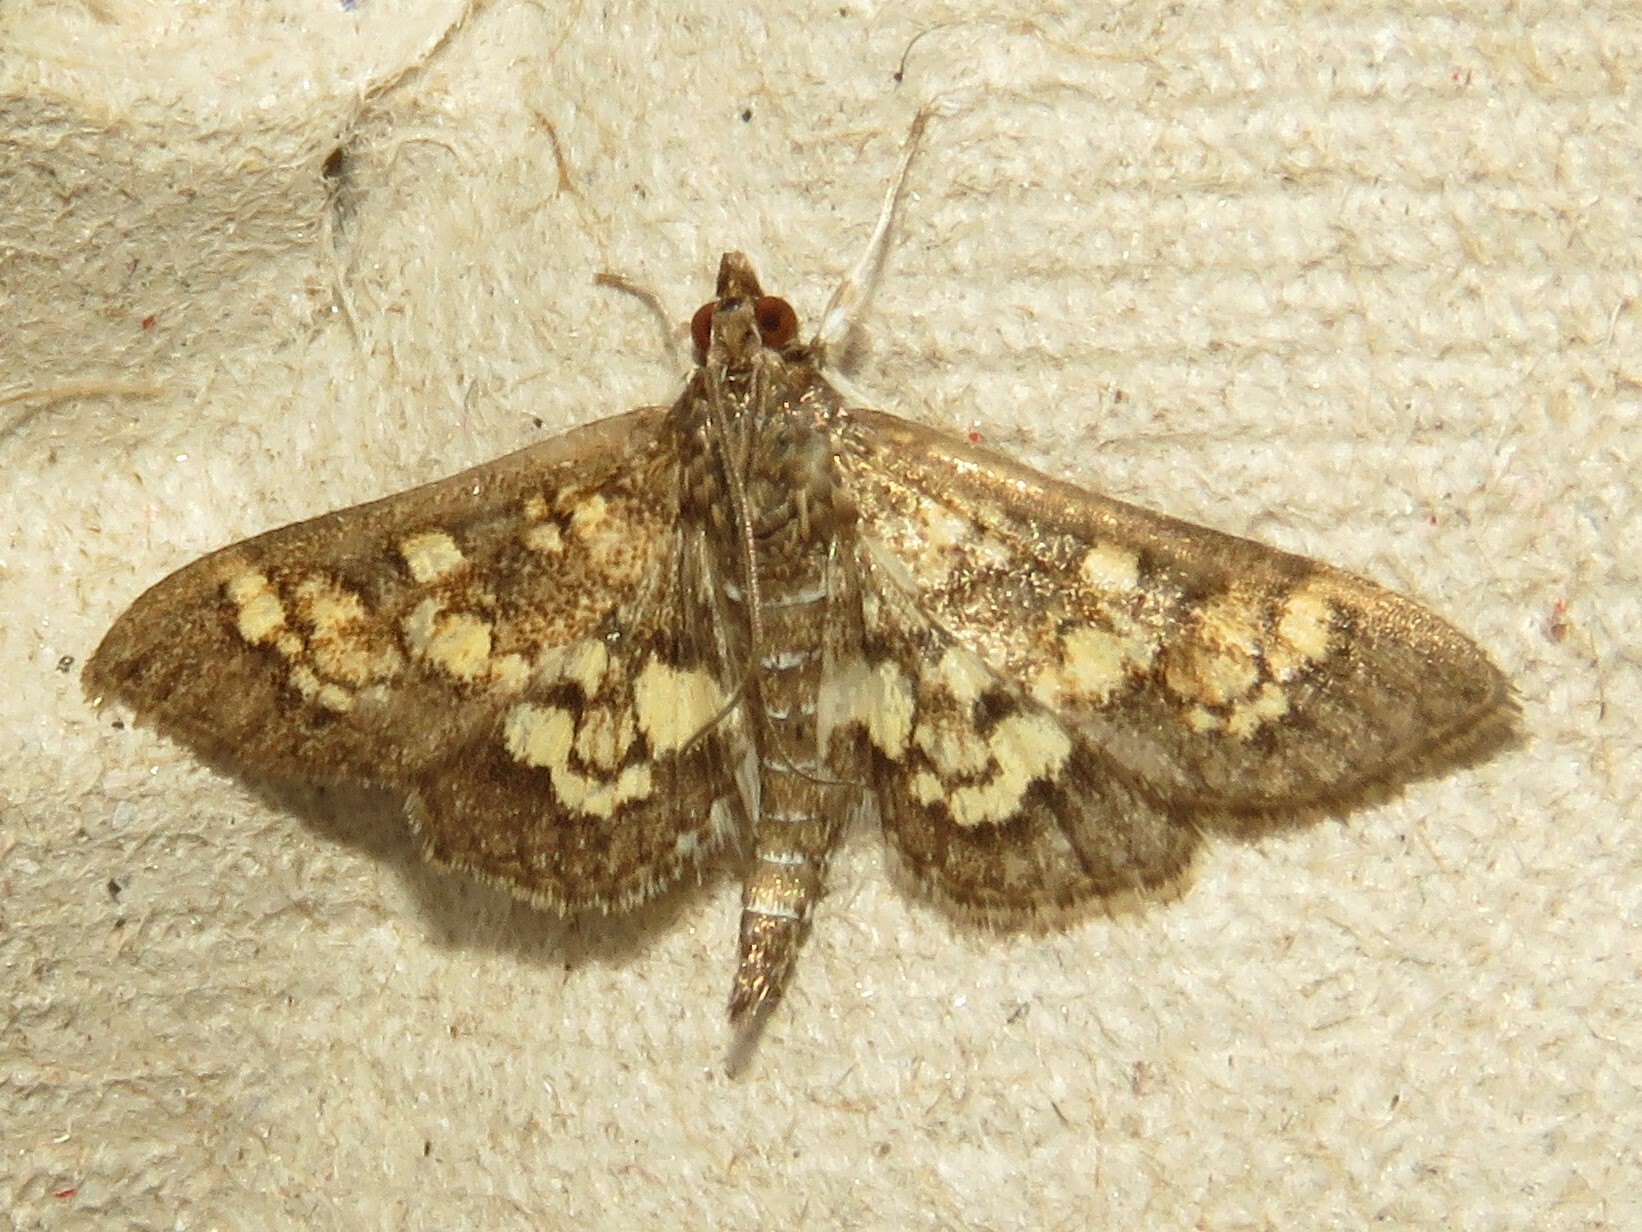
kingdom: Animalia
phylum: Arthropoda
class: Insecta
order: Lepidoptera
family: Crambidae
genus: Epipagis
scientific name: Epipagis adipaloides
